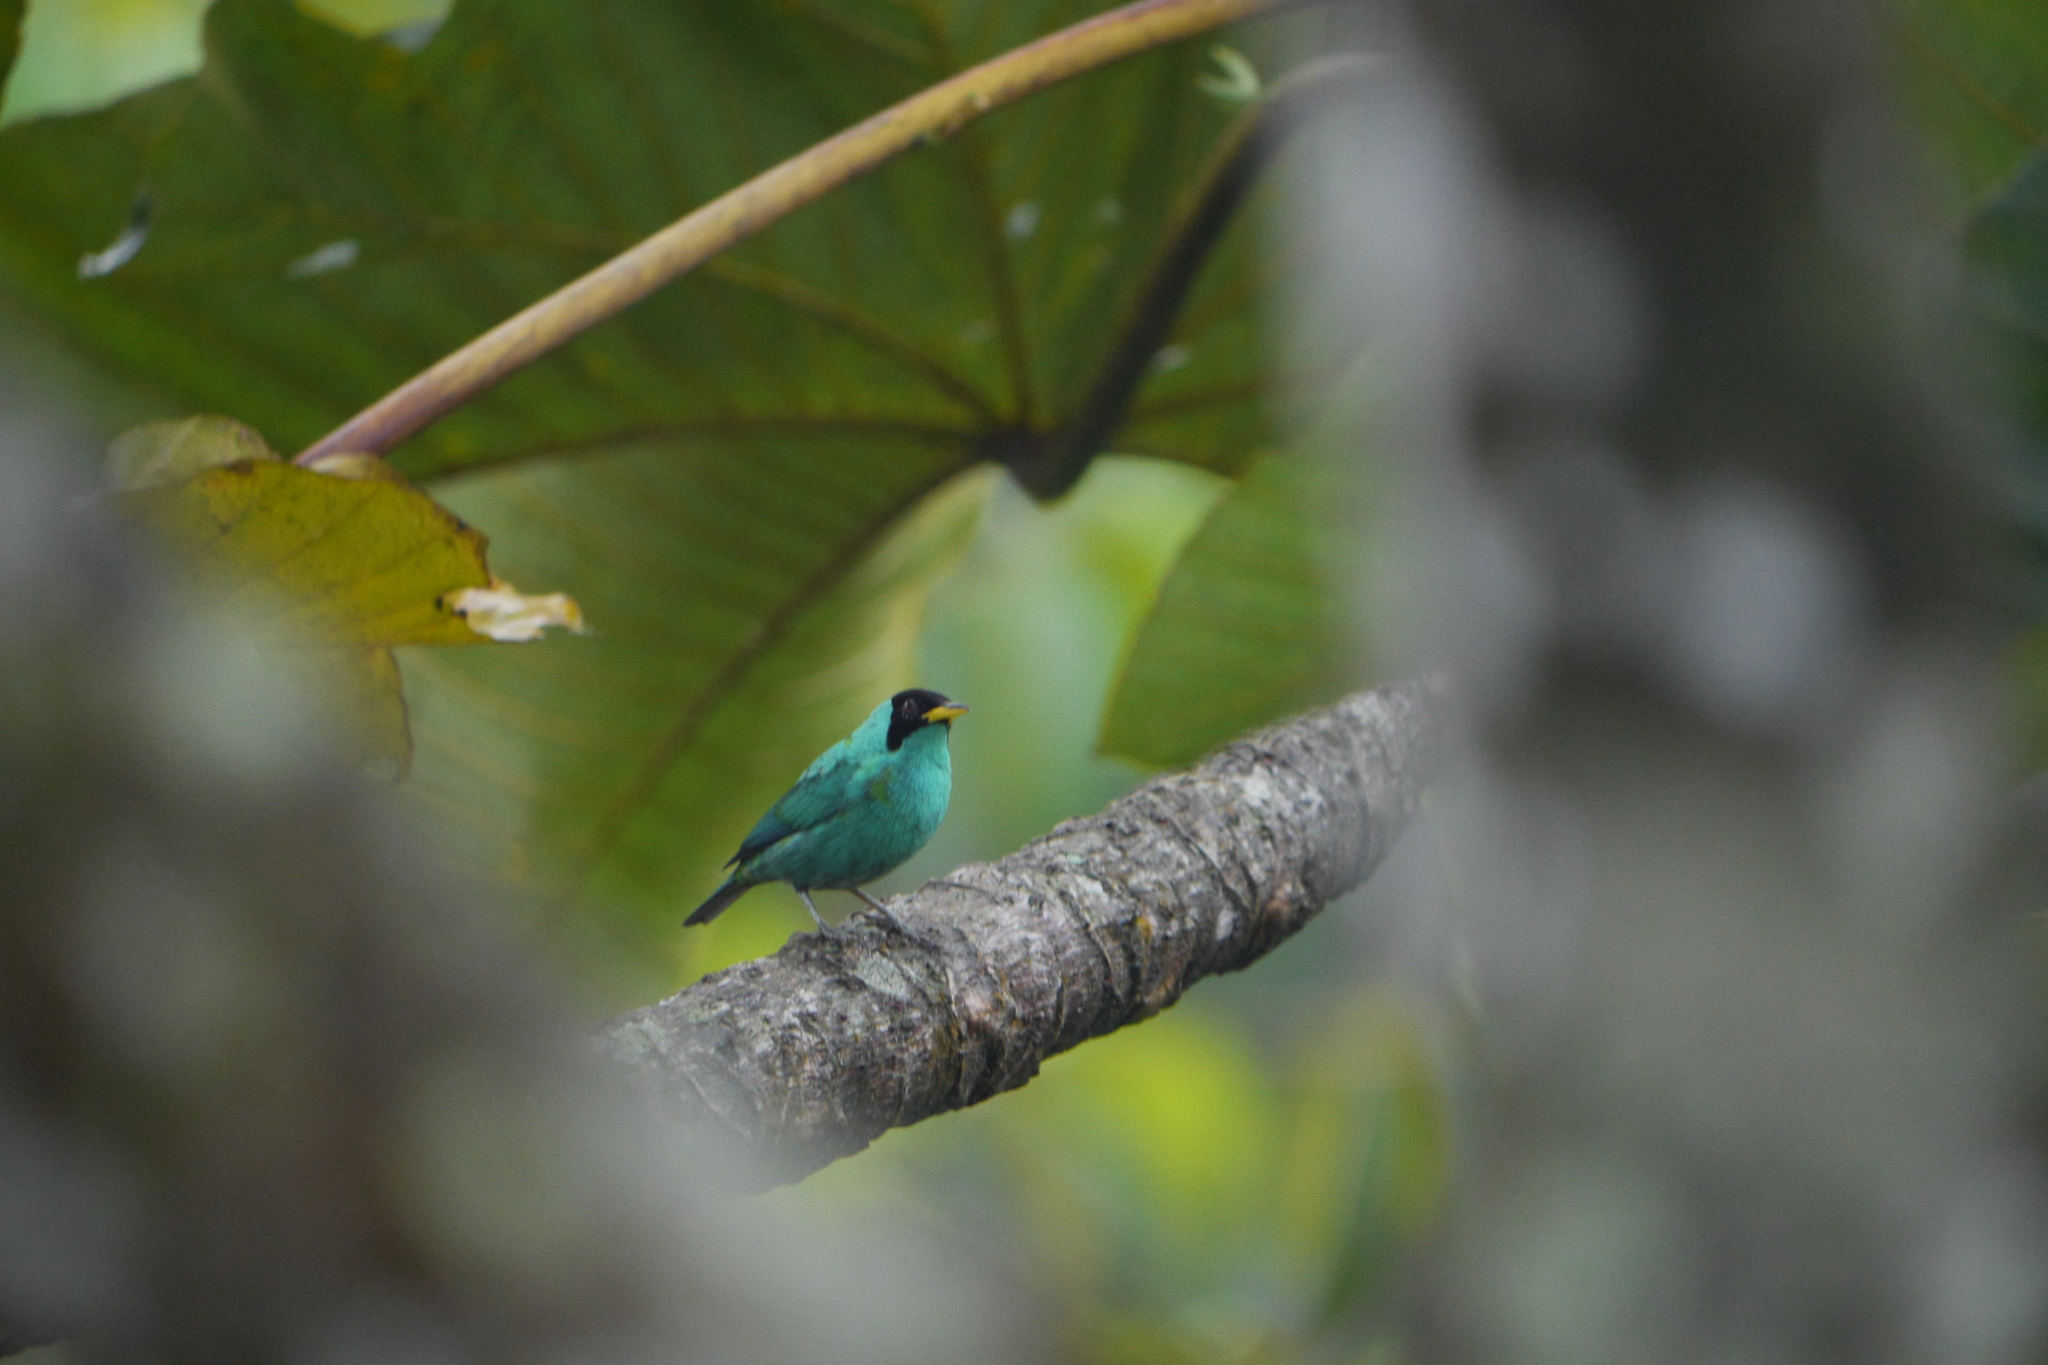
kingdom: Animalia
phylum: Chordata
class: Aves
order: Passeriformes
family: Thraupidae
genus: Chlorophanes
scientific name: Chlorophanes spiza
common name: Green honeycreeper
